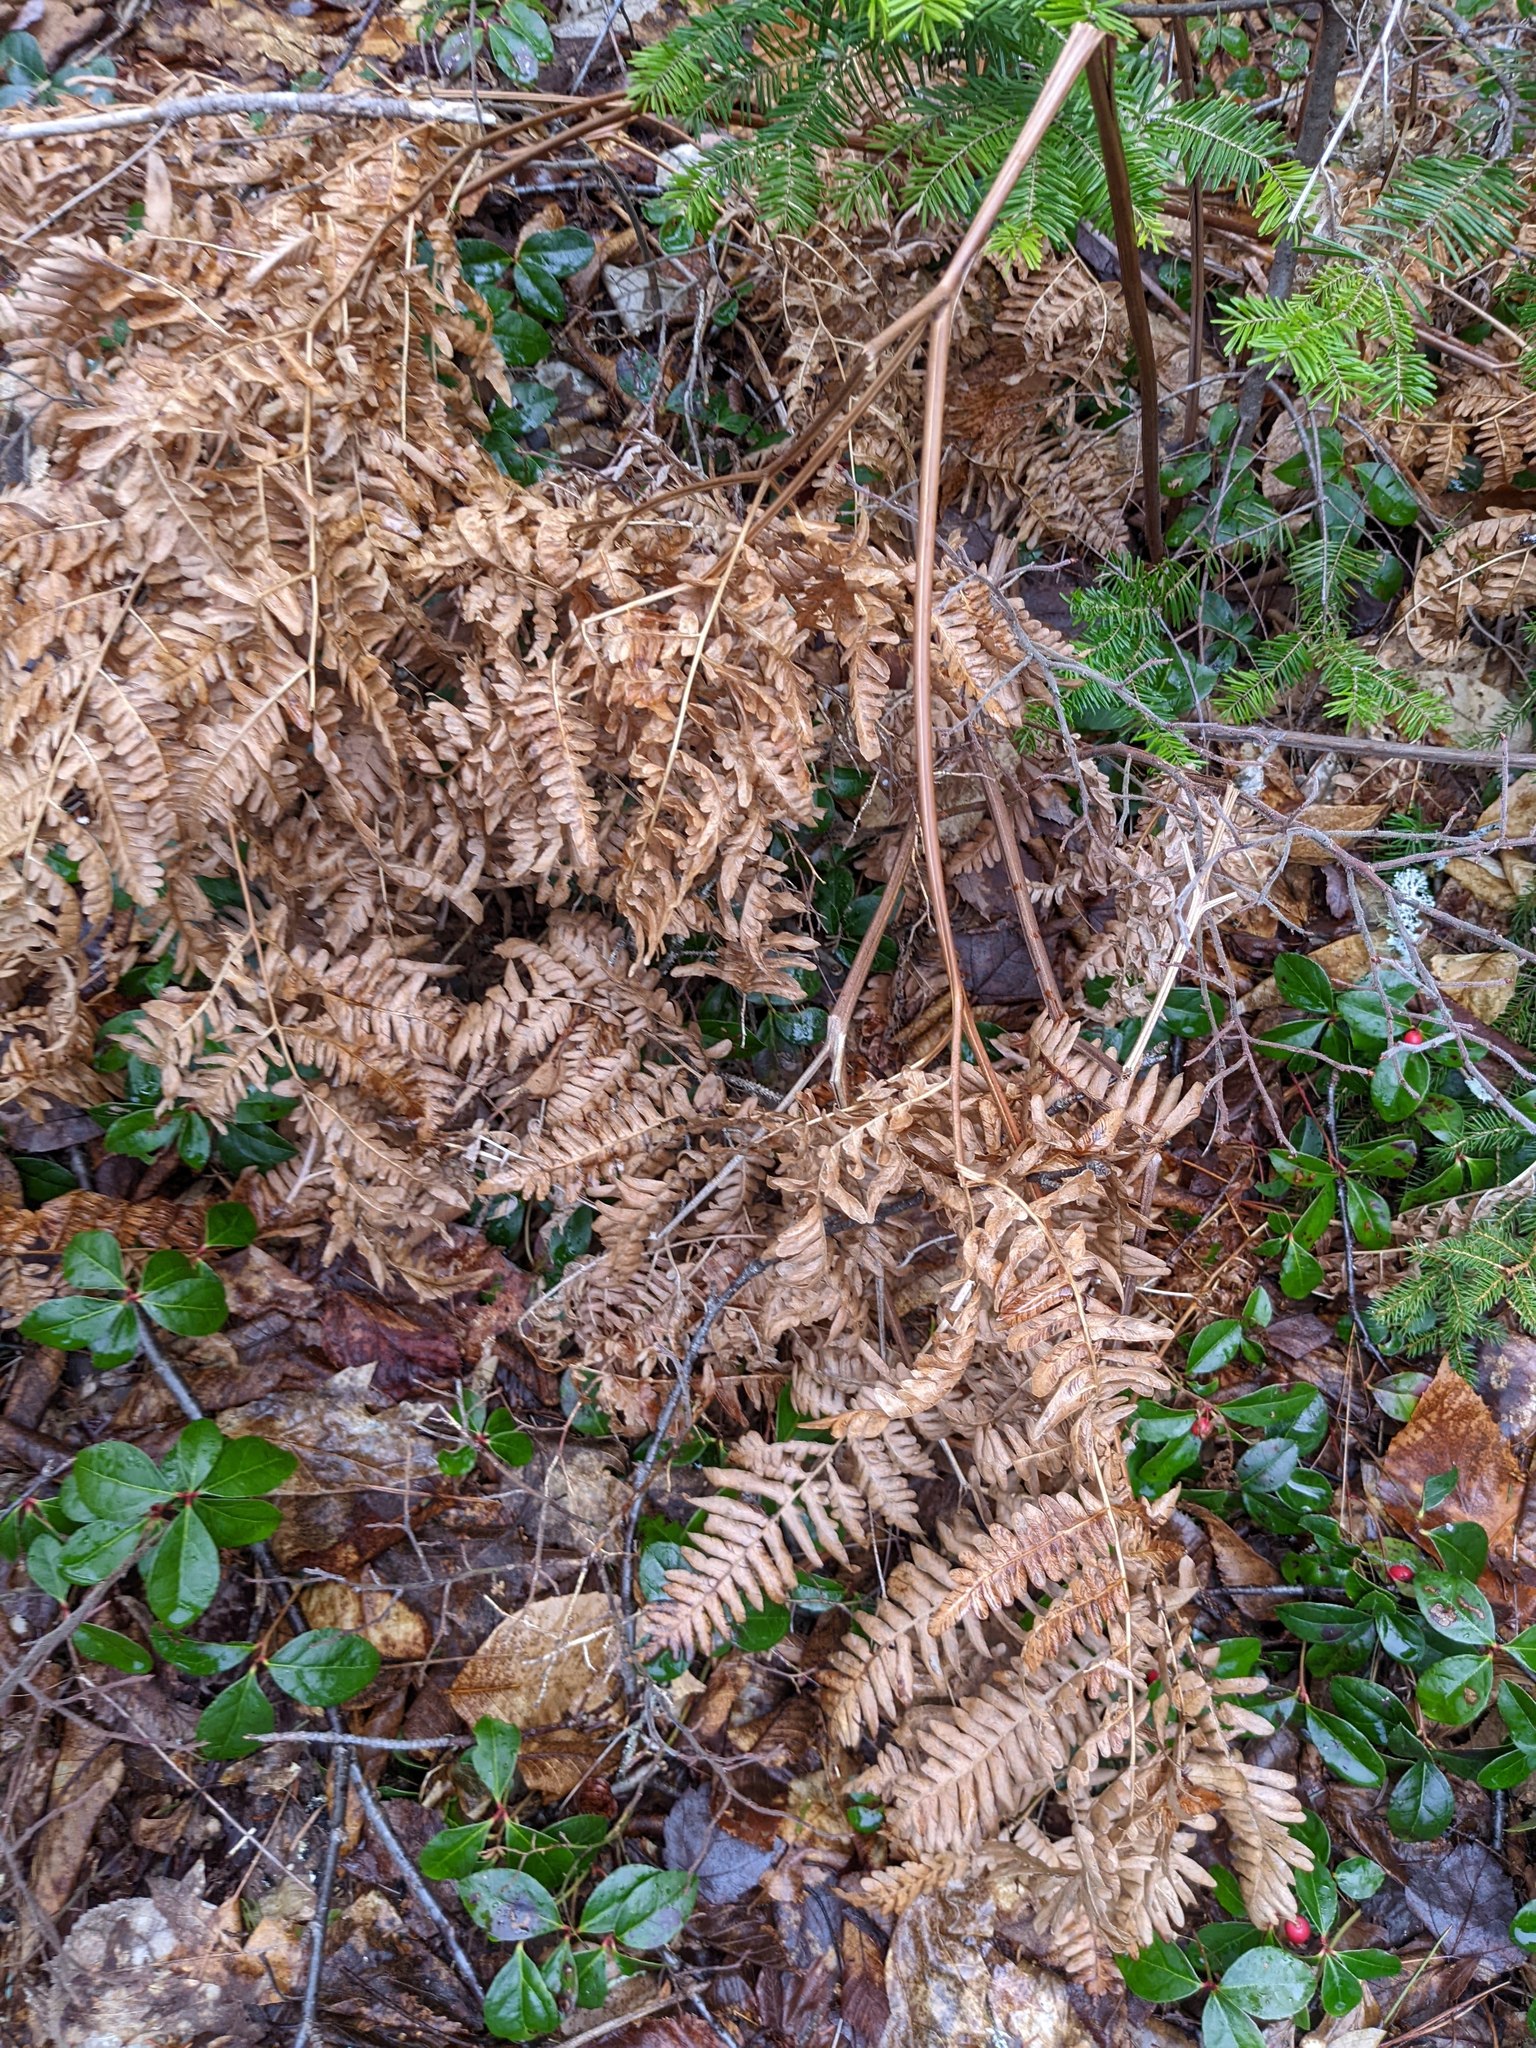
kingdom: Plantae
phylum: Tracheophyta
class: Polypodiopsida
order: Polypodiales
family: Dennstaedtiaceae
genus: Pteridium
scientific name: Pteridium aquilinum
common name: Bracken
